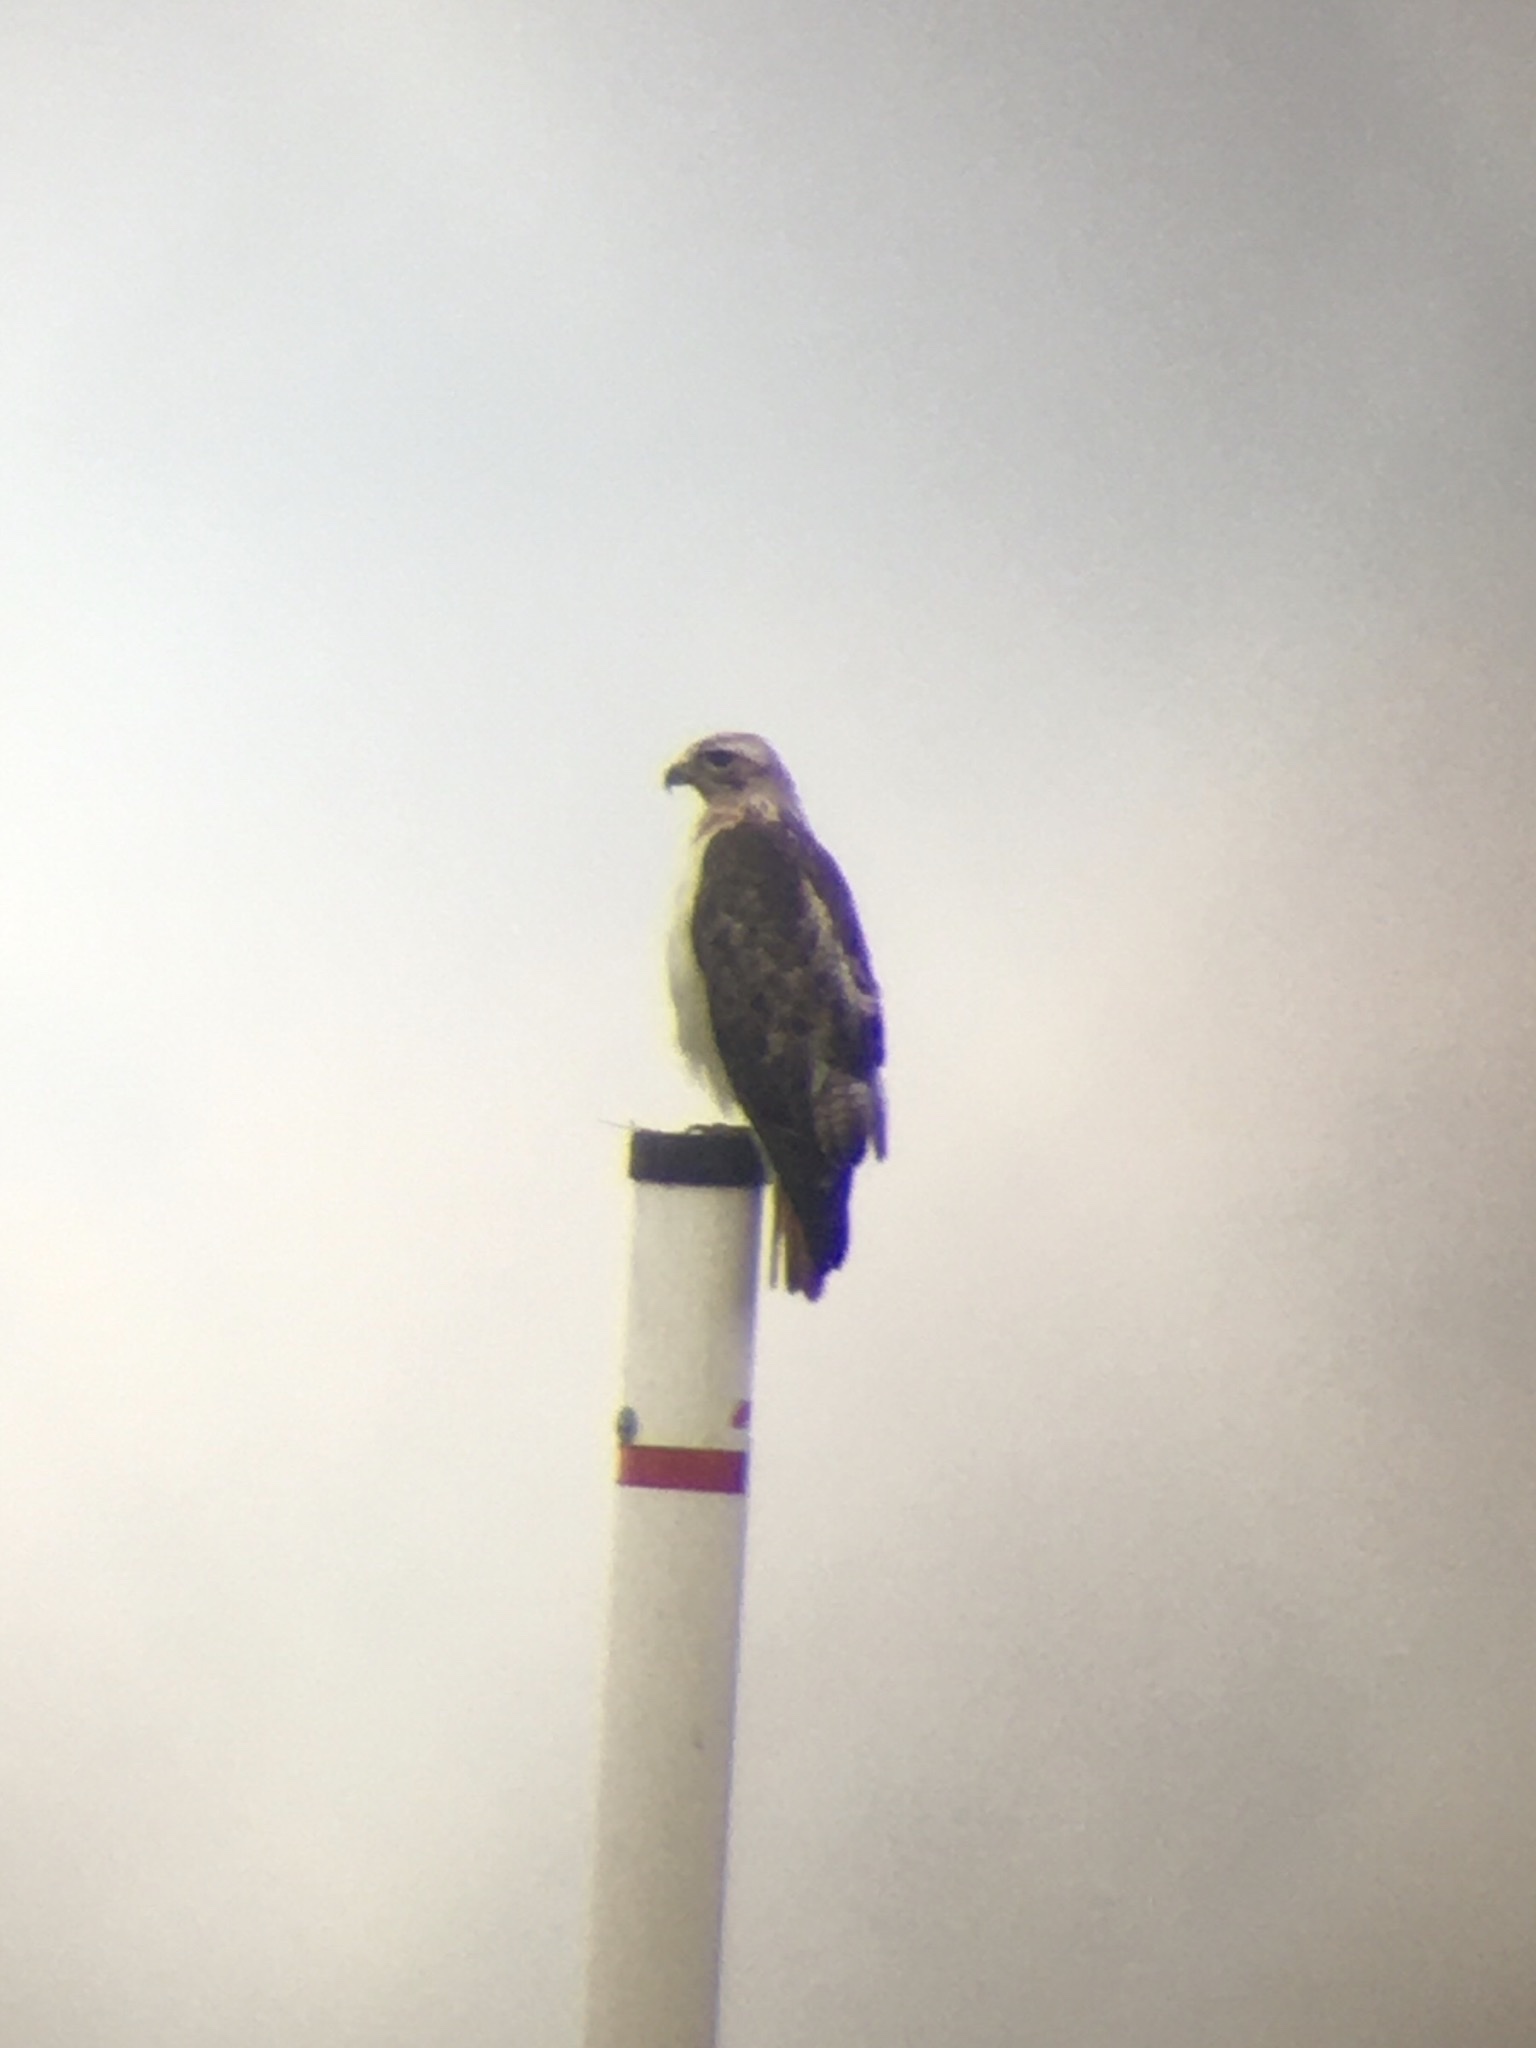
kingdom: Animalia
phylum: Chordata
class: Aves
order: Accipitriformes
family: Accipitridae
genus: Buteo
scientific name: Buteo jamaicensis
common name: Red-tailed hawk
